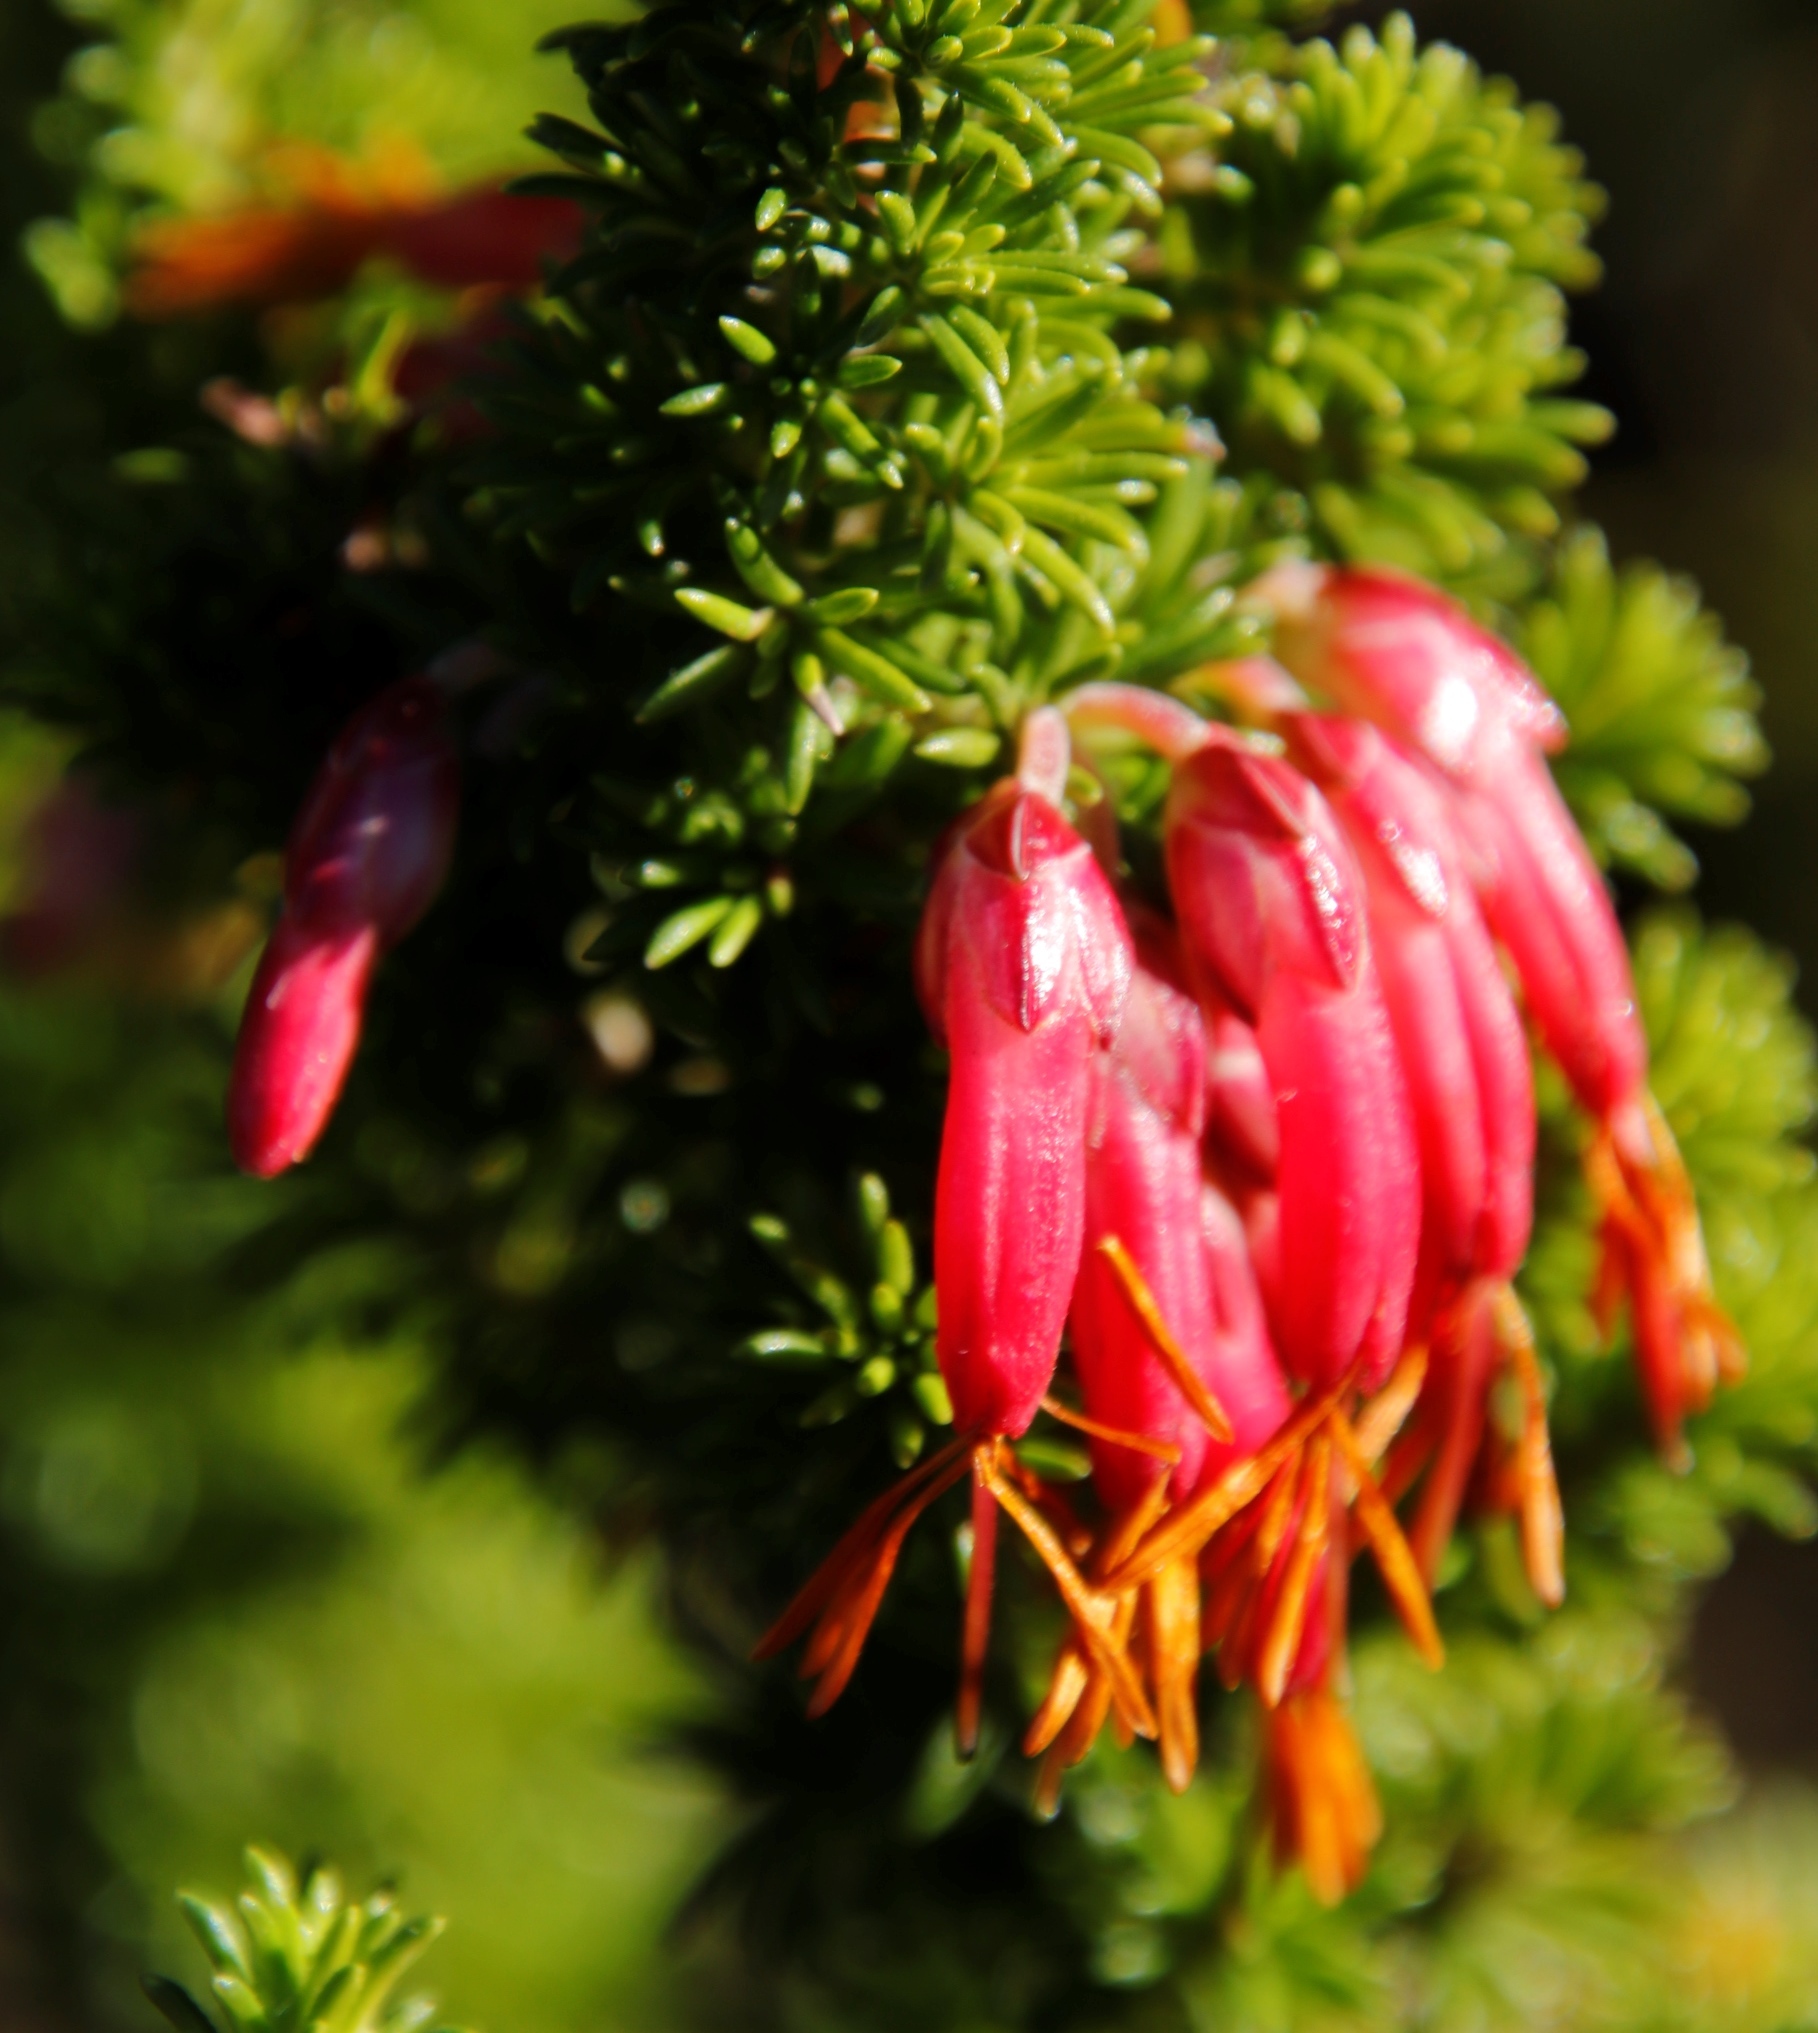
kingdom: Plantae
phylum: Tracheophyta
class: Magnoliopsida
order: Ericales
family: Ericaceae
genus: Erica
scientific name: Erica coccinea
